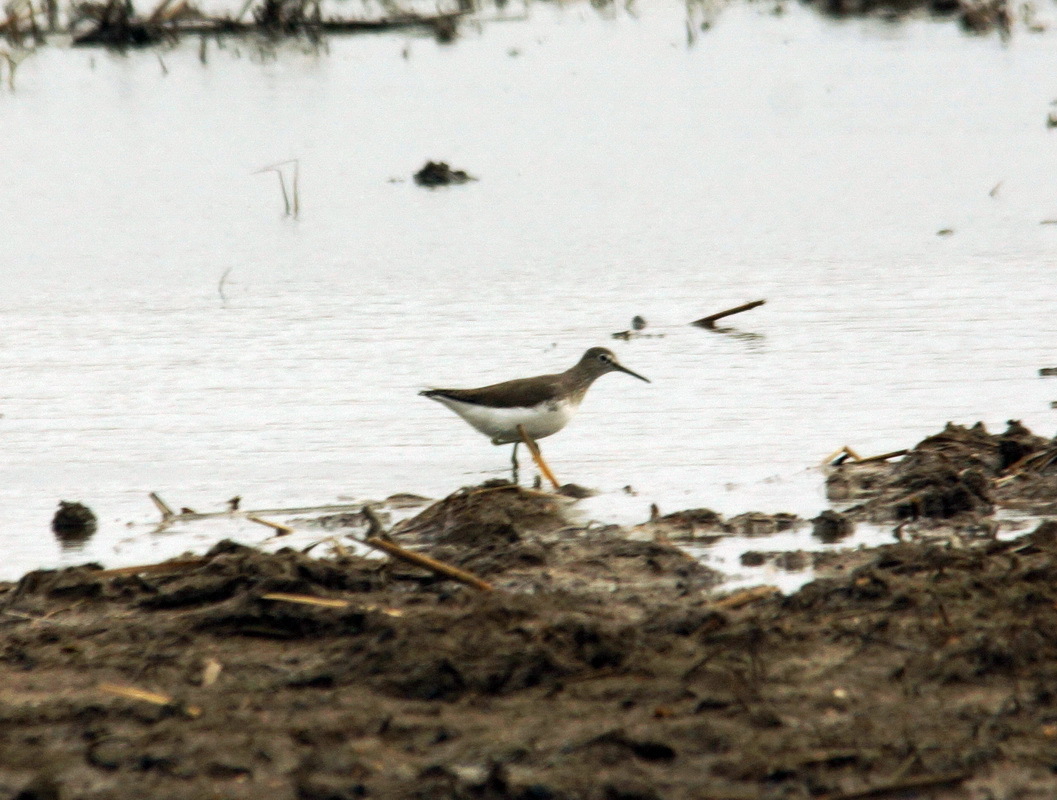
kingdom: Animalia
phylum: Chordata
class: Aves
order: Charadriiformes
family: Scolopacidae
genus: Tringa
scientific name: Tringa ochropus
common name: Green sandpiper
